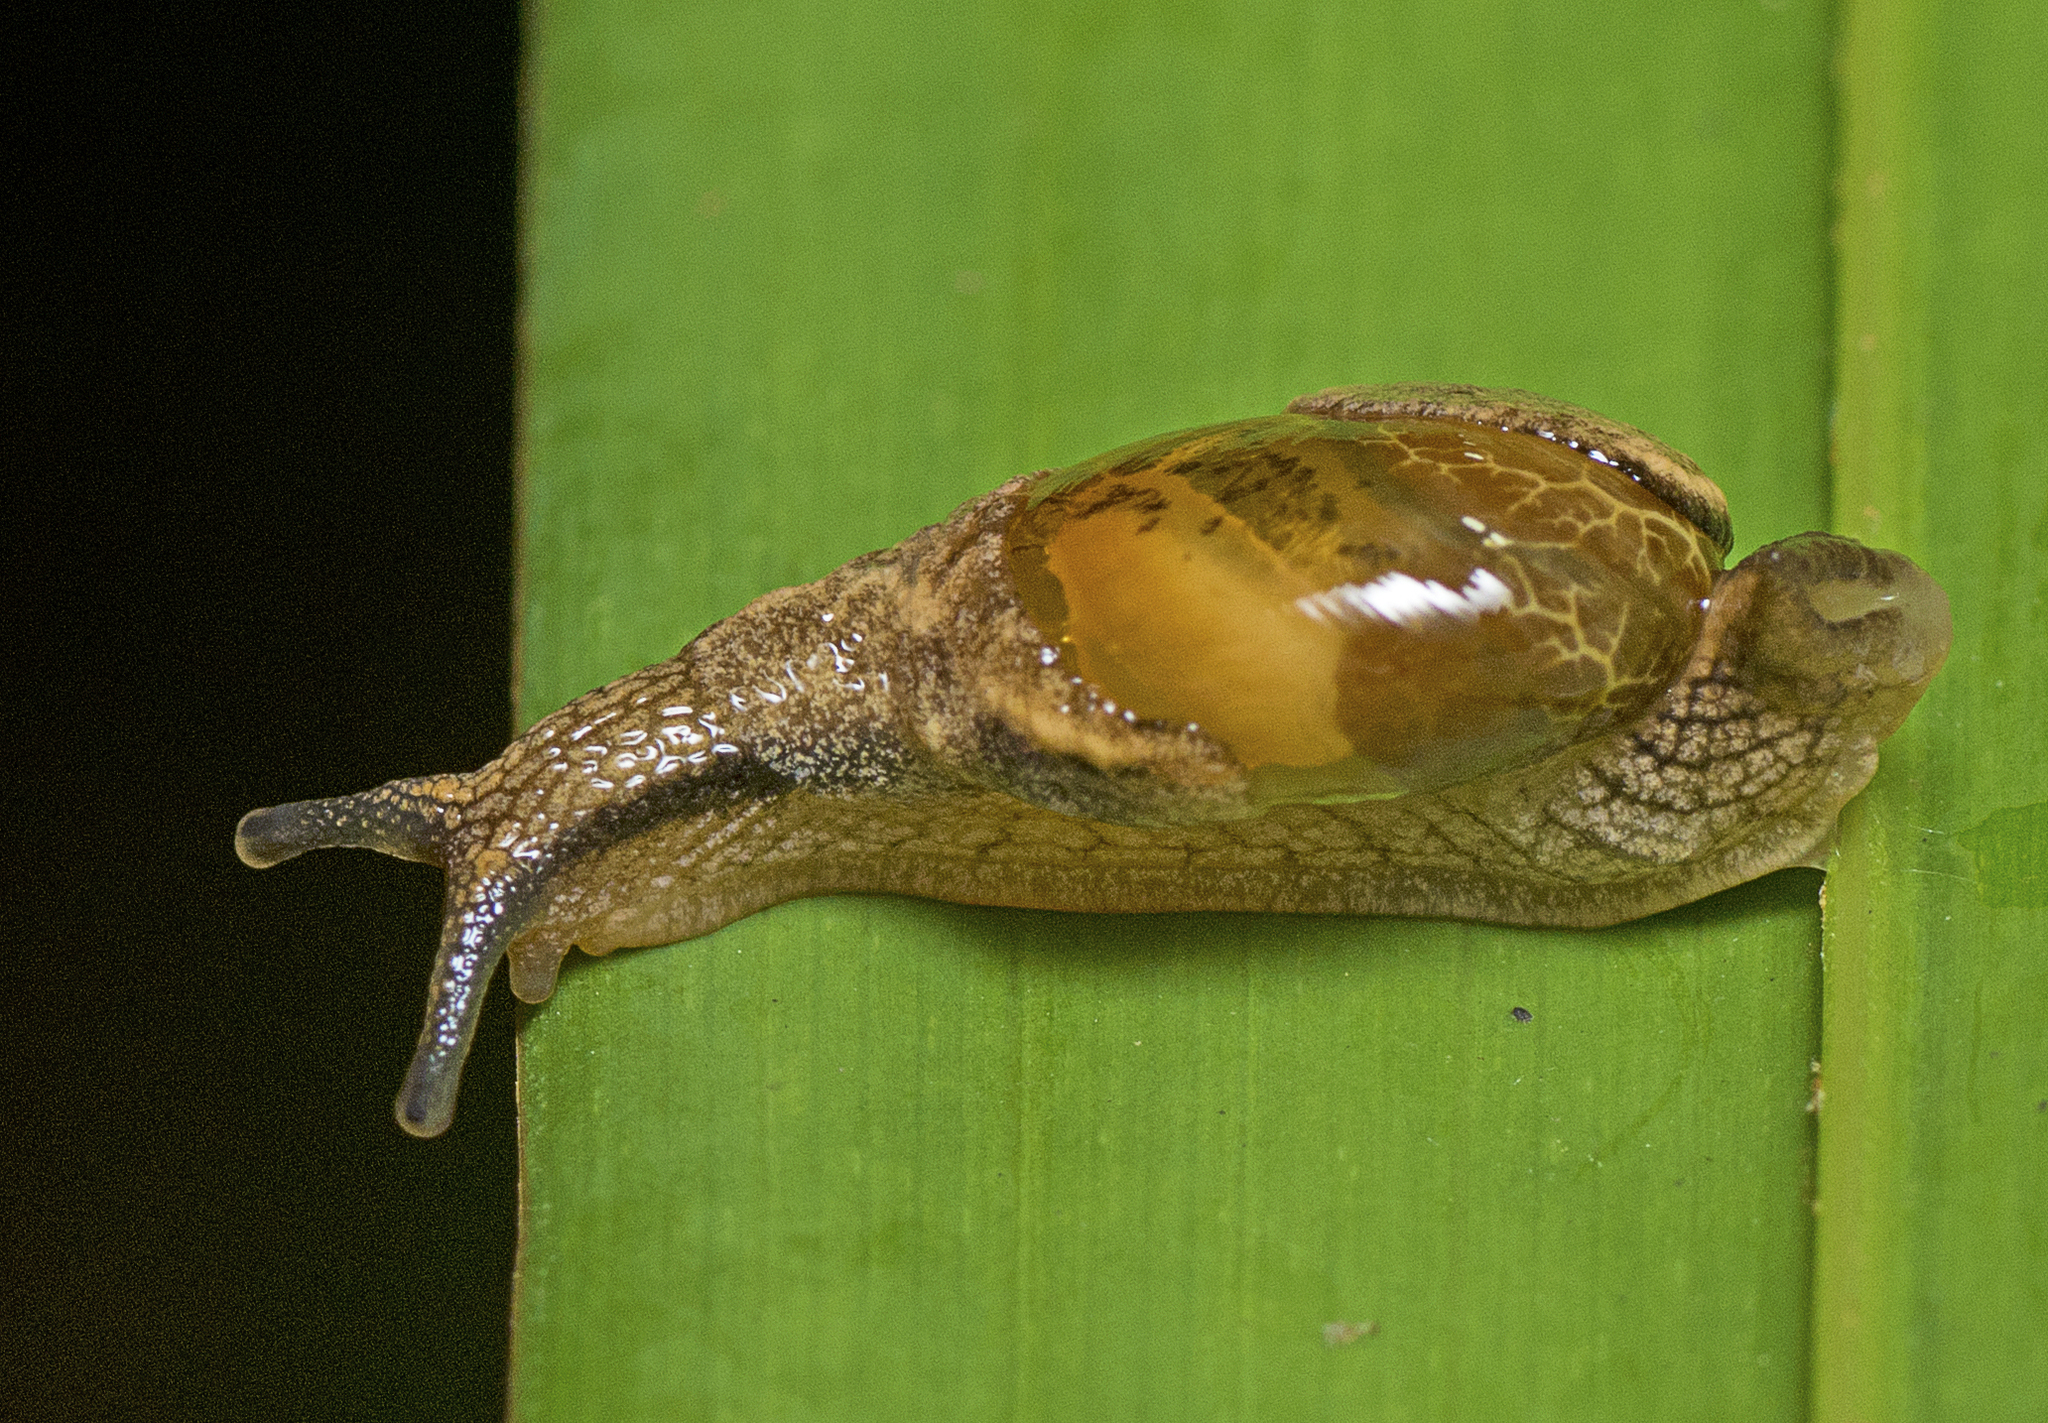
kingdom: Animalia
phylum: Mollusca
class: Gastropoda
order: Stylommatophora
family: Helicarionidae
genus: Ubiquitarion
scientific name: Ubiquitarion iridis
